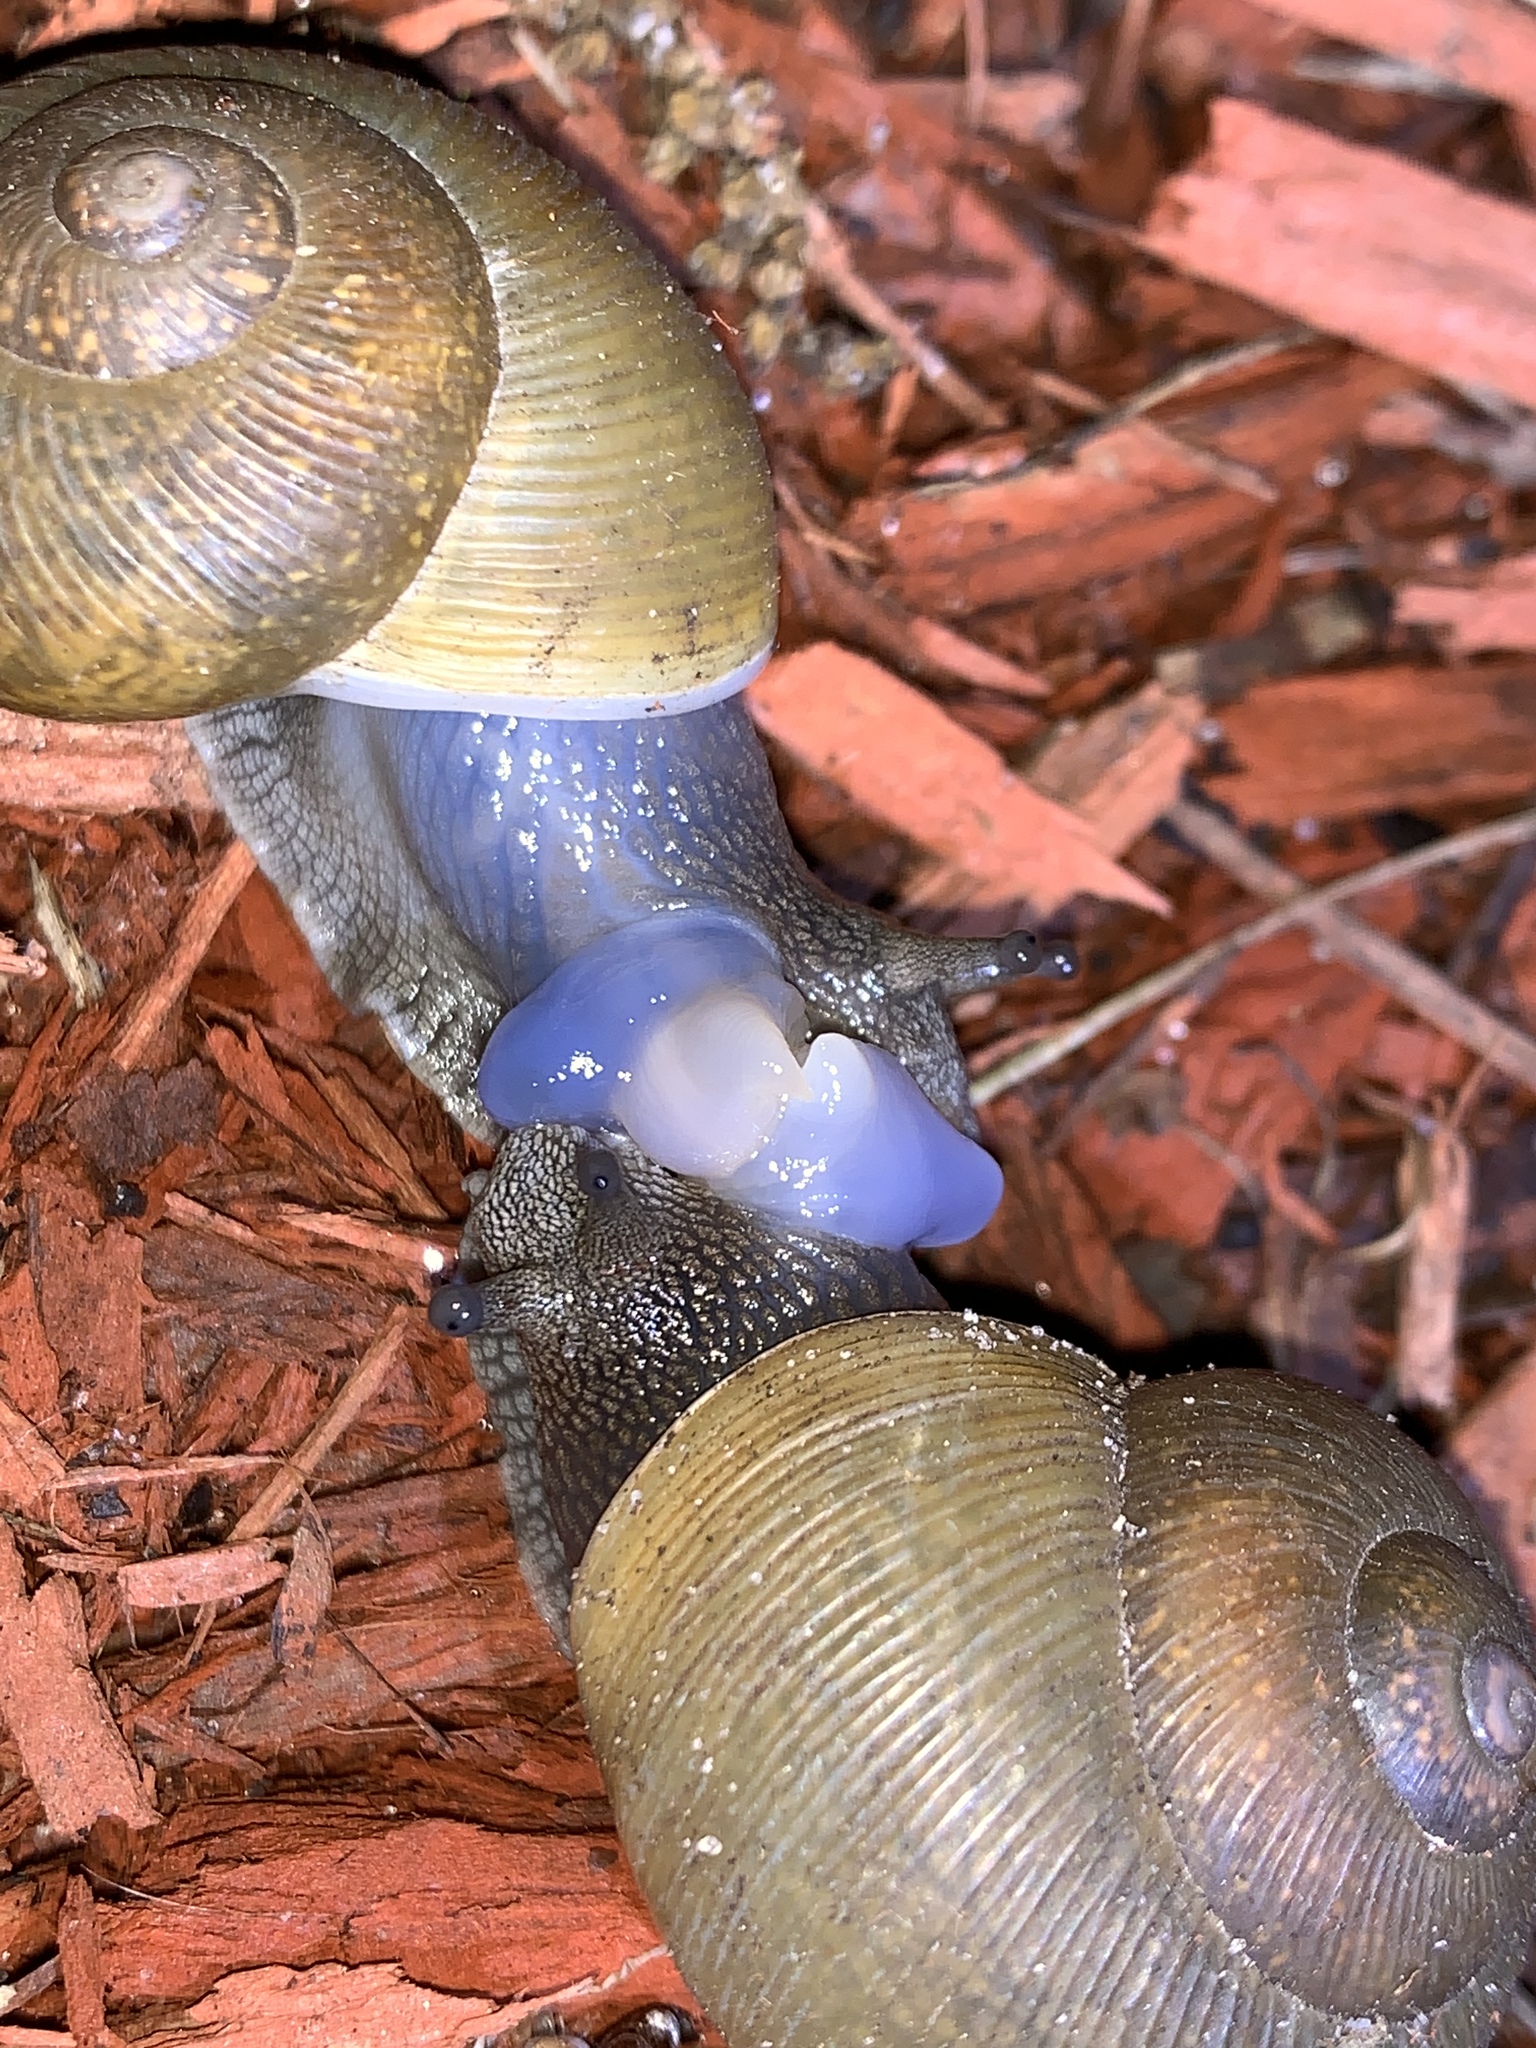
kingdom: Animalia
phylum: Mollusca
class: Gastropoda
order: Stylommatophora
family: Zachrysiidae
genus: Zachrysia
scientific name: Zachrysia provisoria
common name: Garden zachrysia
